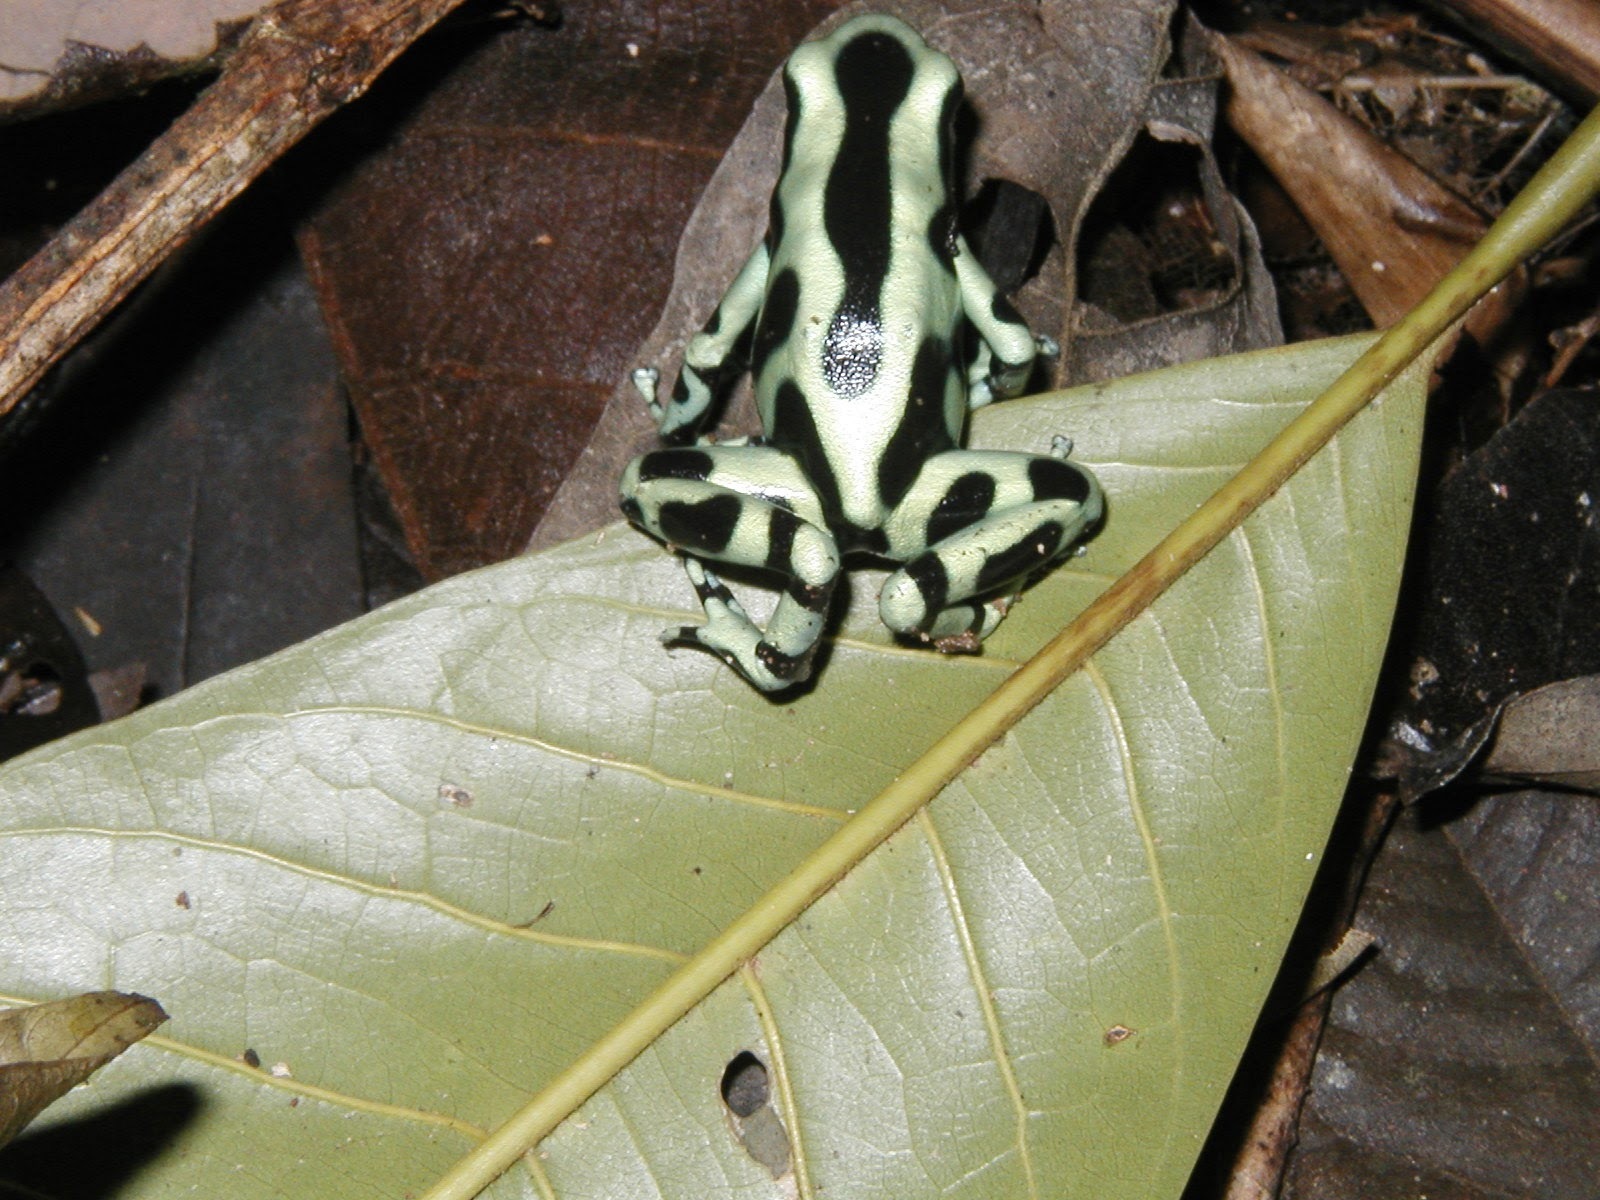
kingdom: Animalia
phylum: Chordata
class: Amphibia
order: Anura
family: Dendrobatidae
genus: Dendrobates
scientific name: Dendrobates auratus
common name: Green and black poison dart frog
